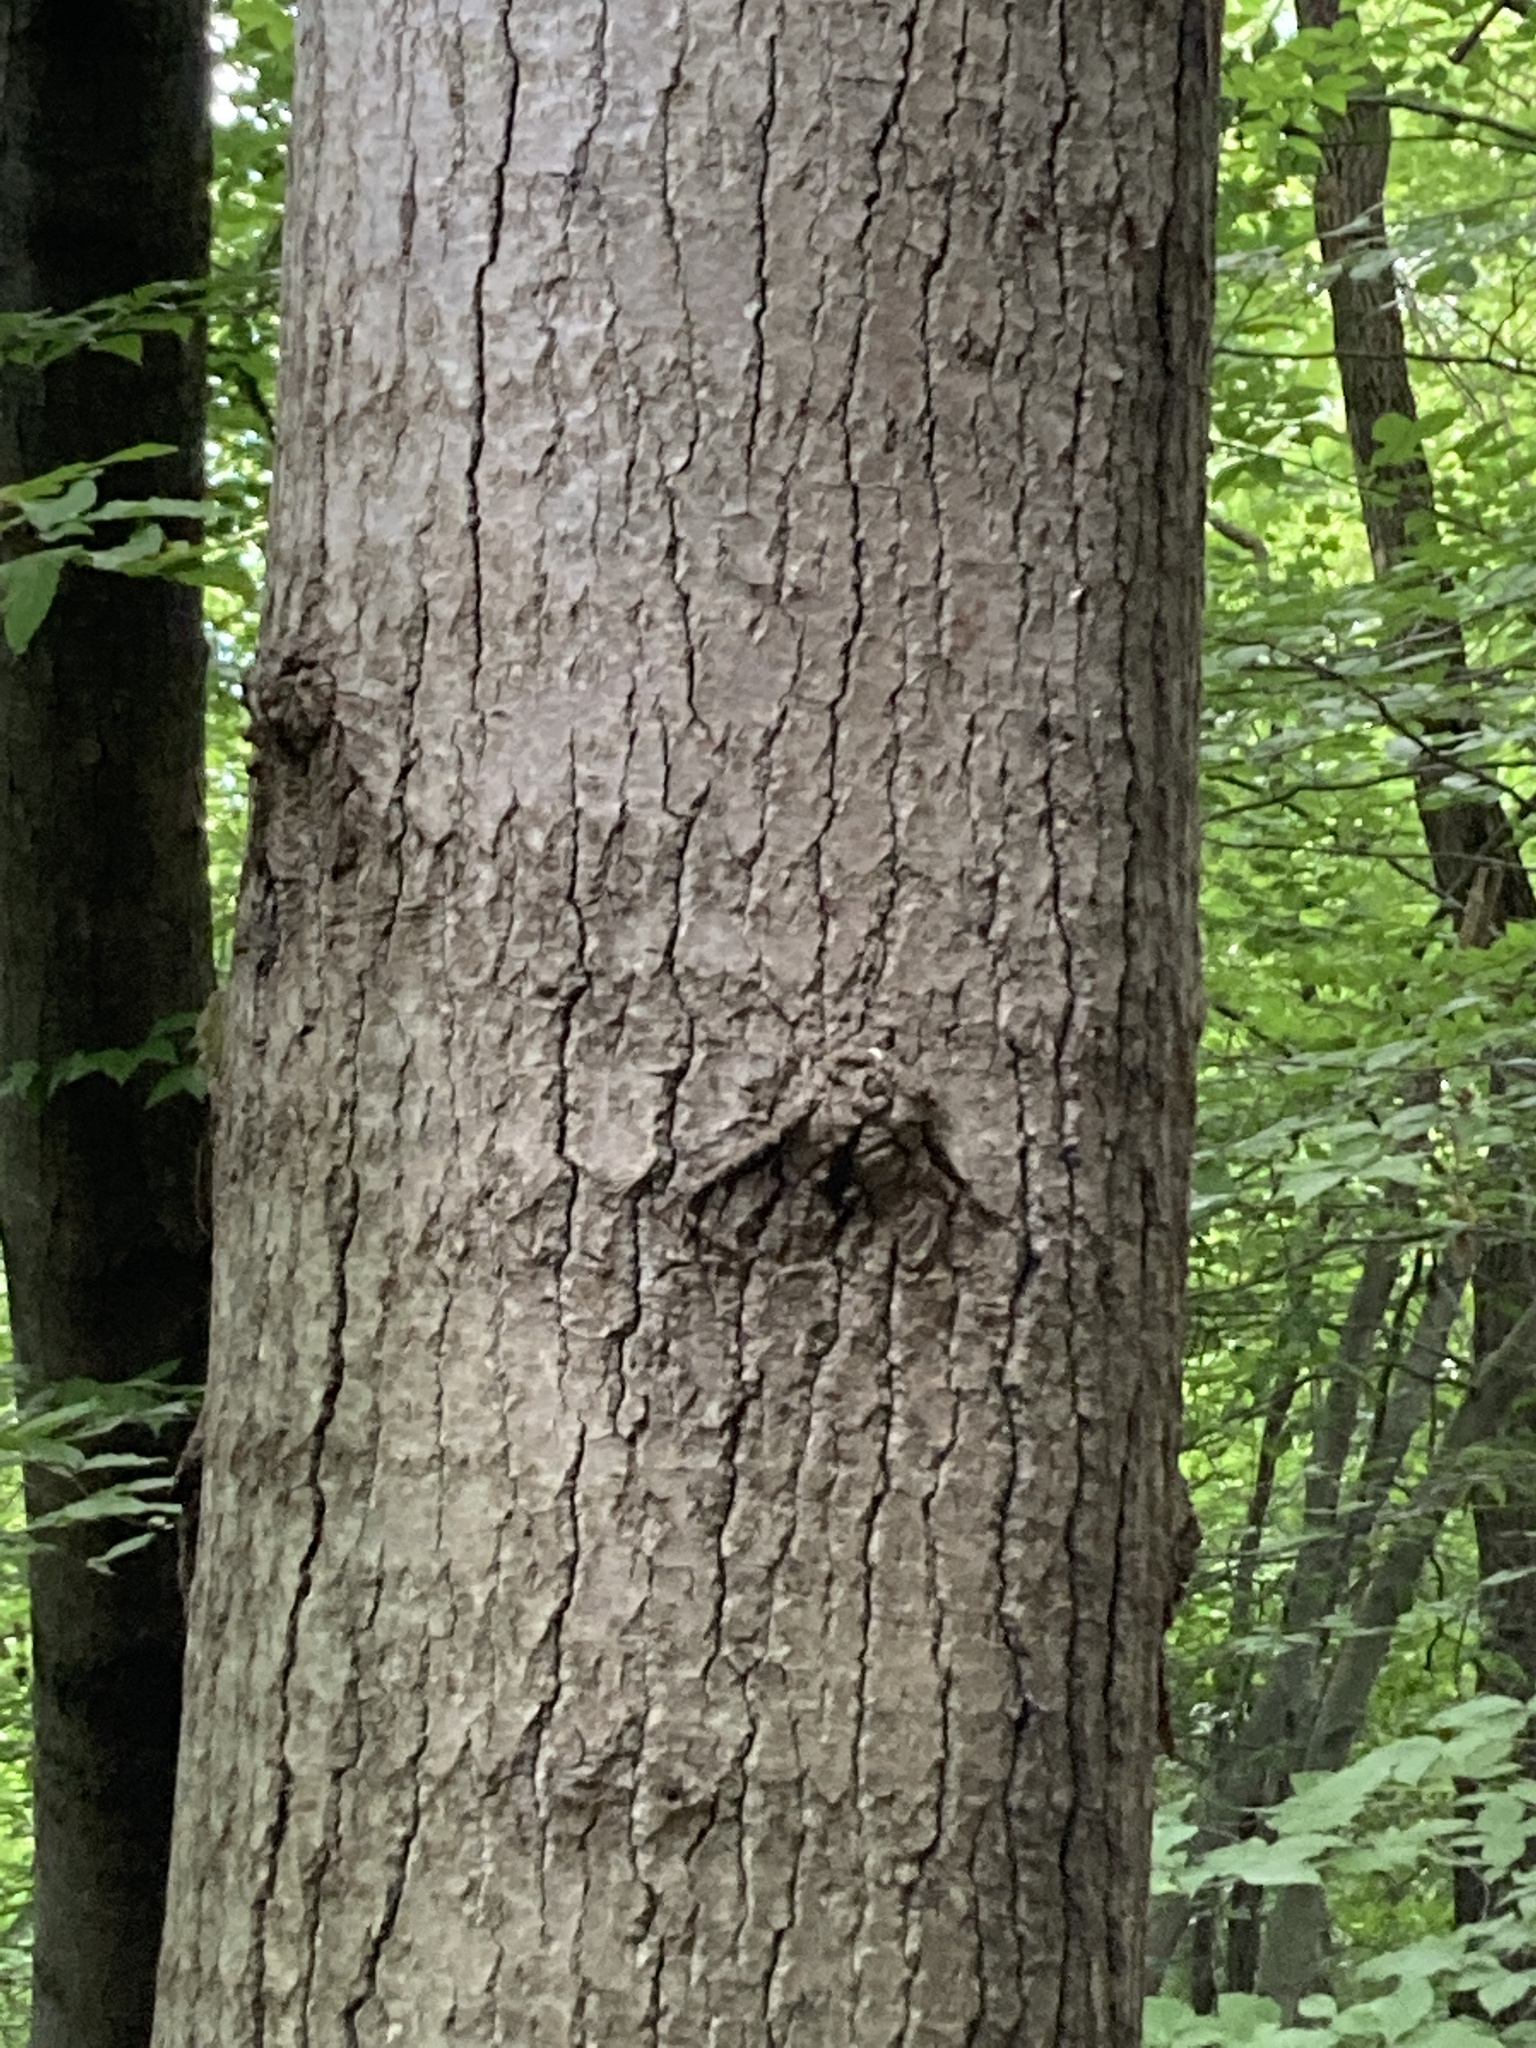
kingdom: Plantae
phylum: Tracheophyta
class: Magnoliopsida
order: Malpighiales
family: Salicaceae
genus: Populus
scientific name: Populus grandidentata
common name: Bigtooth aspen
